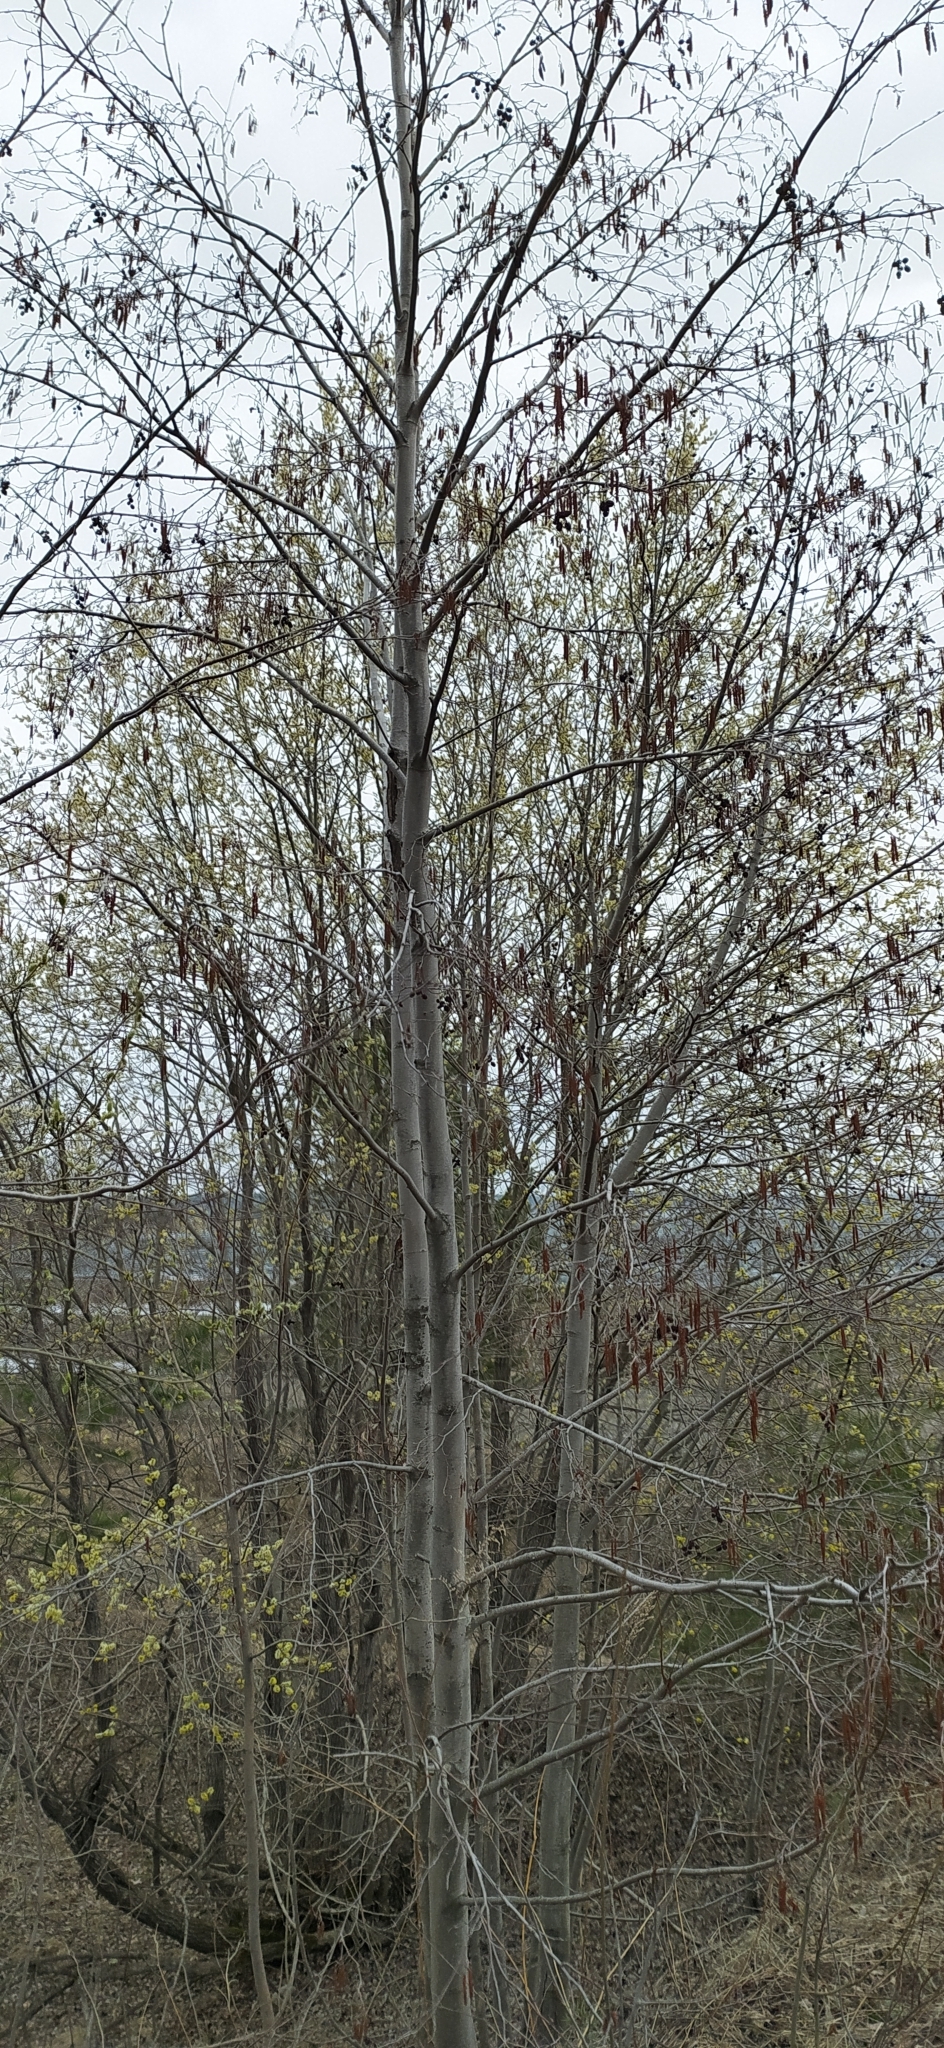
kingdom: Plantae
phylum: Tracheophyta
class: Magnoliopsida
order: Fagales
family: Betulaceae
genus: Alnus
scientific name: Alnus incana
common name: Grey alder
